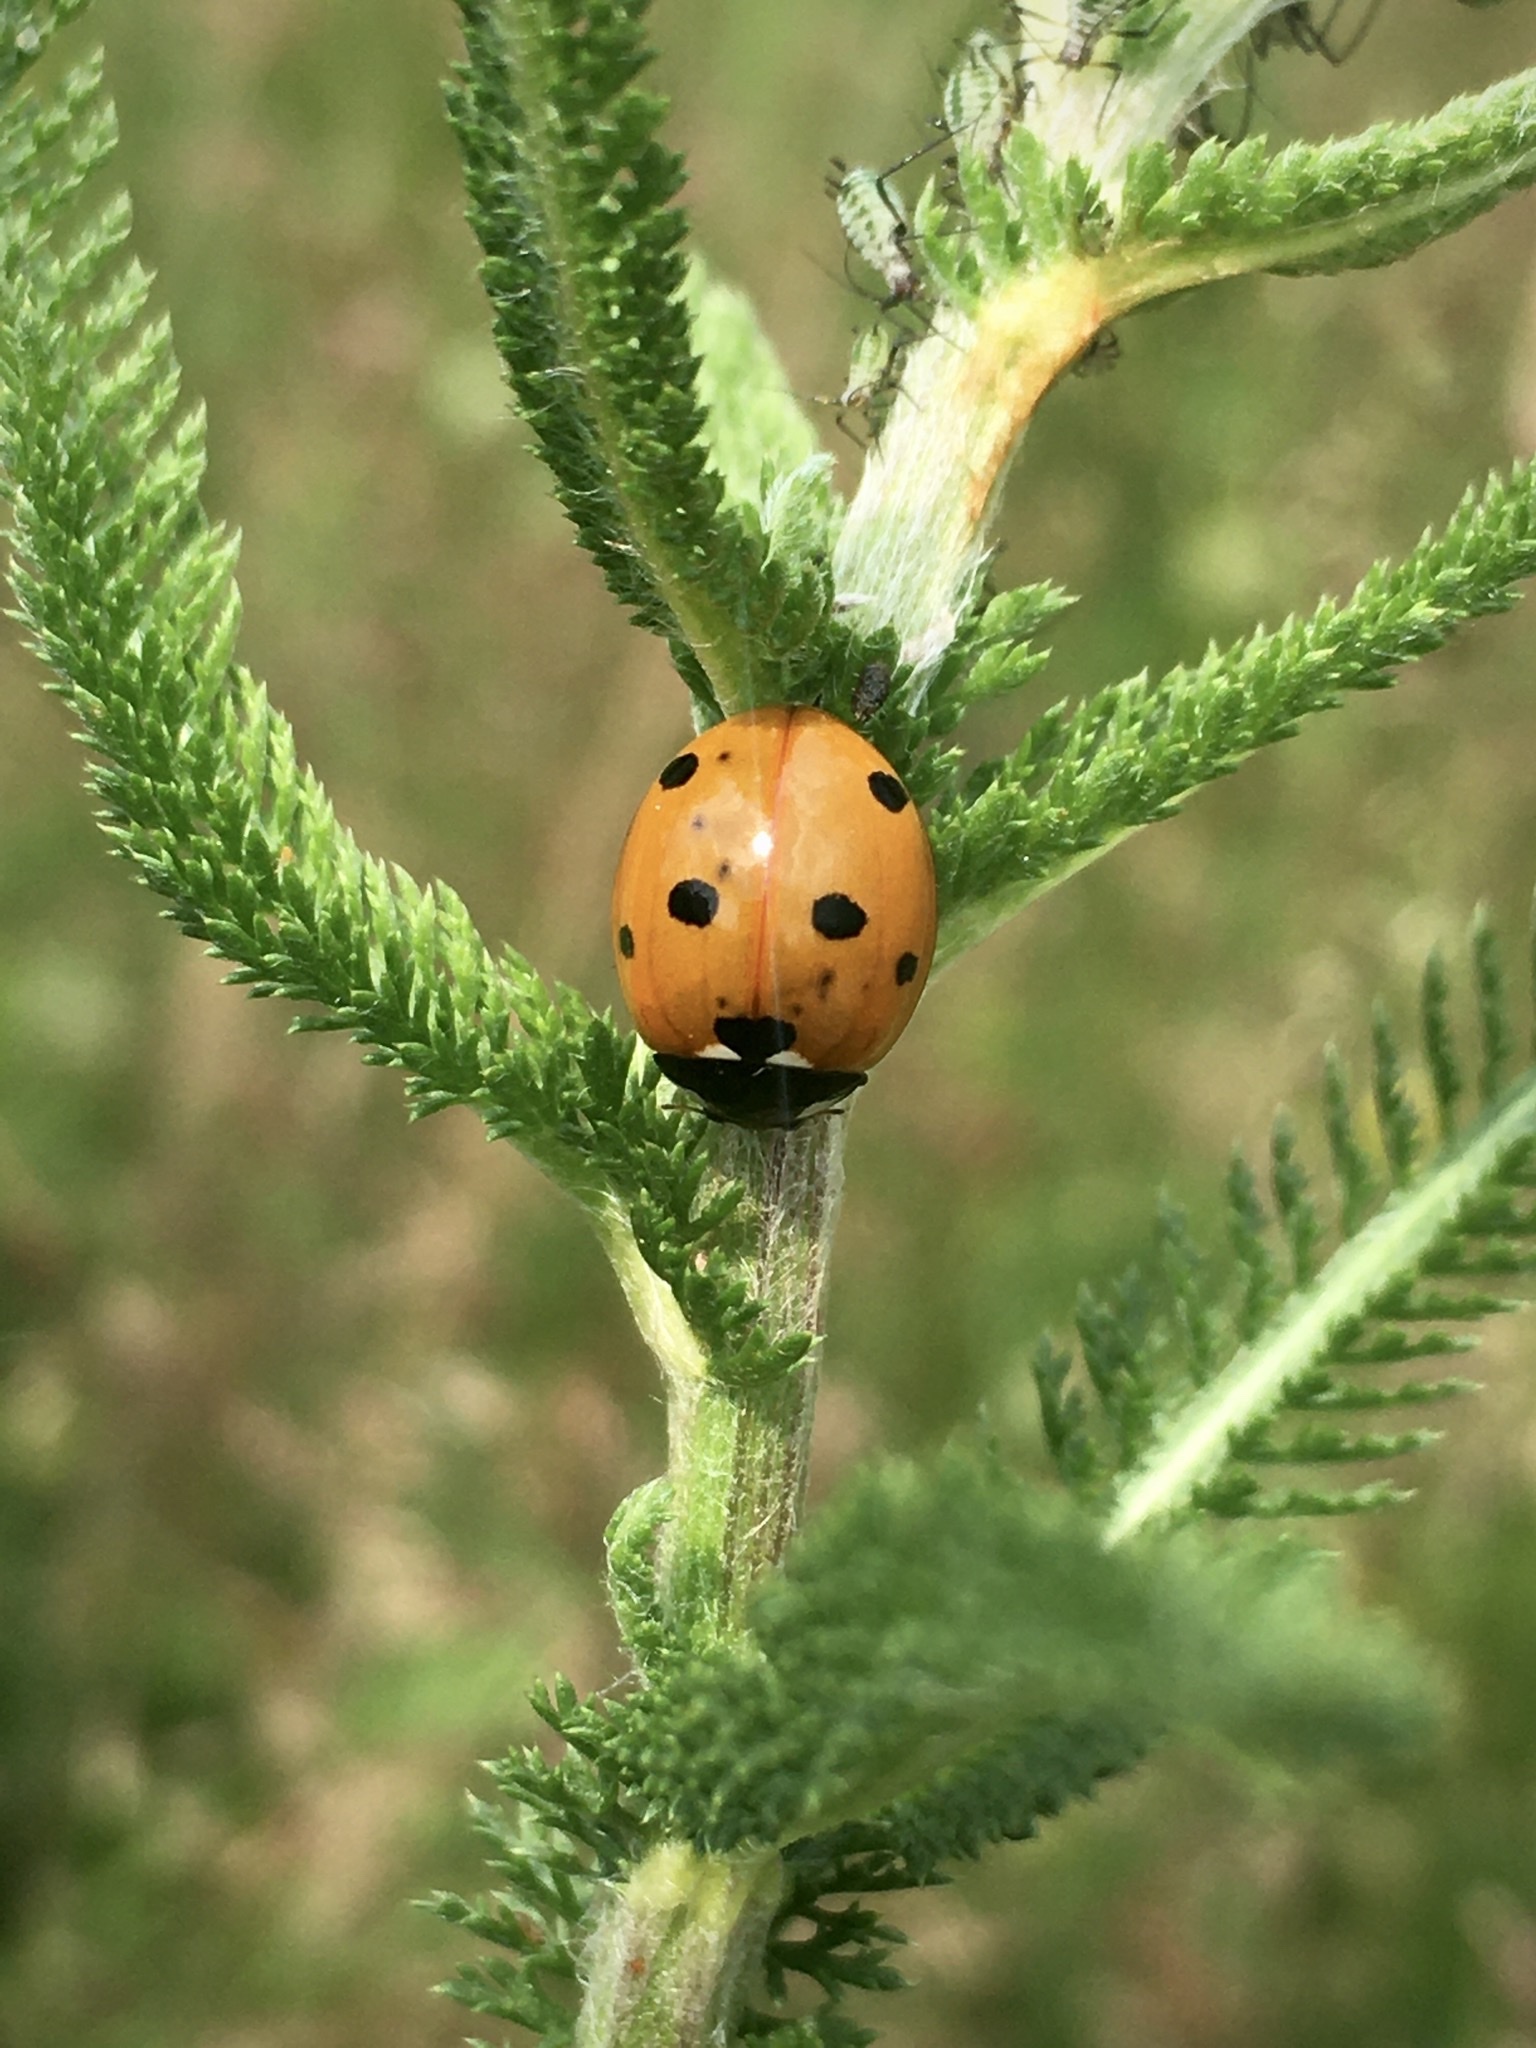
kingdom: Animalia
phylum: Arthropoda
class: Insecta
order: Coleoptera
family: Coccinellidae
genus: Coccinella
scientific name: Coccinella septempunctata
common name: Sevenspotted lady beetle
